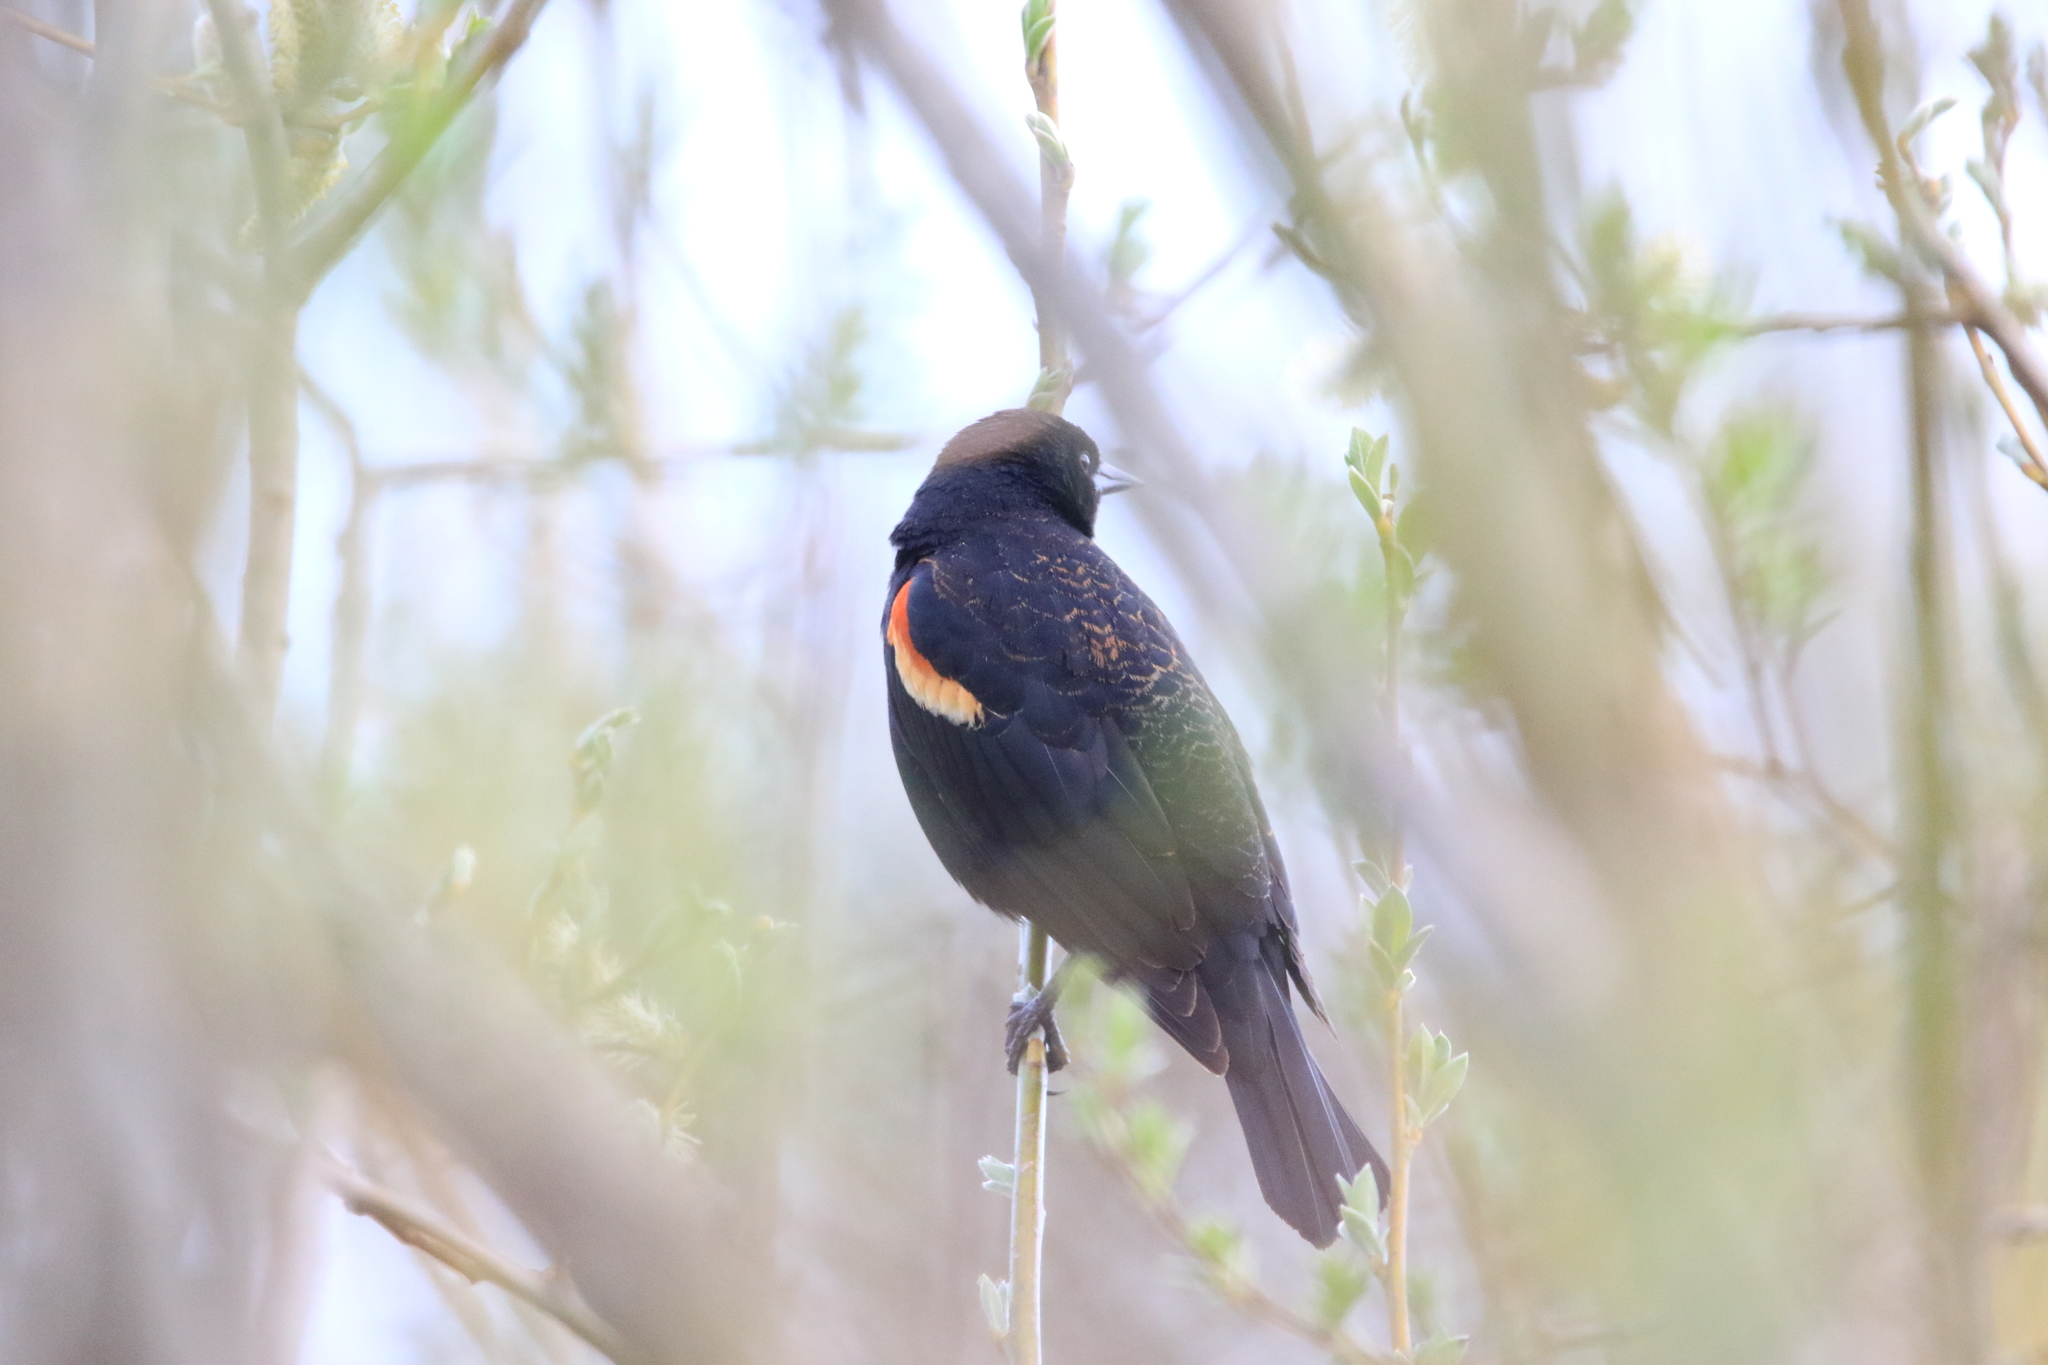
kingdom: Animalia
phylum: Chordata
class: Aves
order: Passeriformes
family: Icteridae
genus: Agelaius
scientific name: Agelaius phoeniceus
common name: Red-winged blackbird
